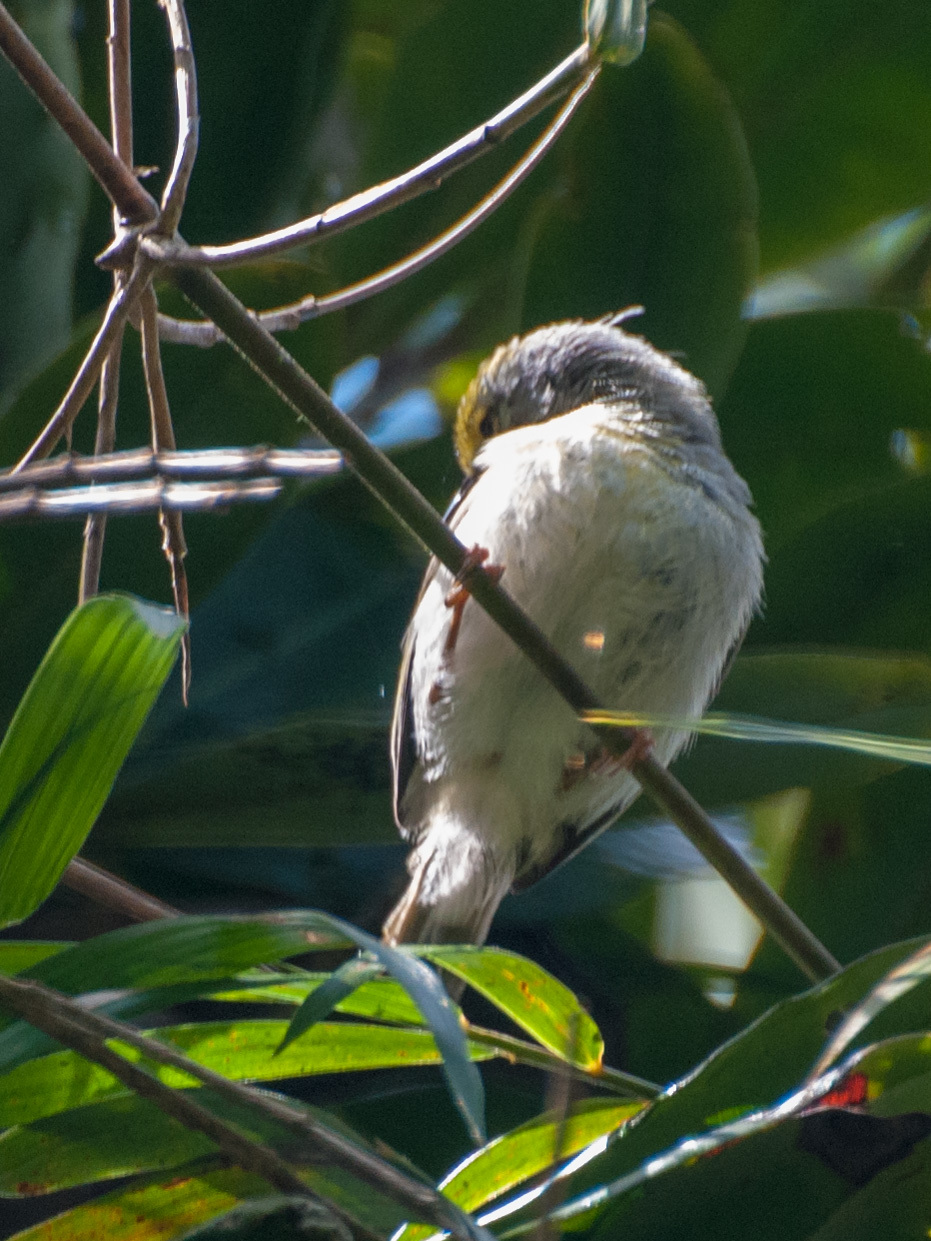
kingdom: Animalia
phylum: Chordata
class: Aves
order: Passeriformes
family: Cisticolidae
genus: Neomixis
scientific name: Neomixis tenella
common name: Common jery
